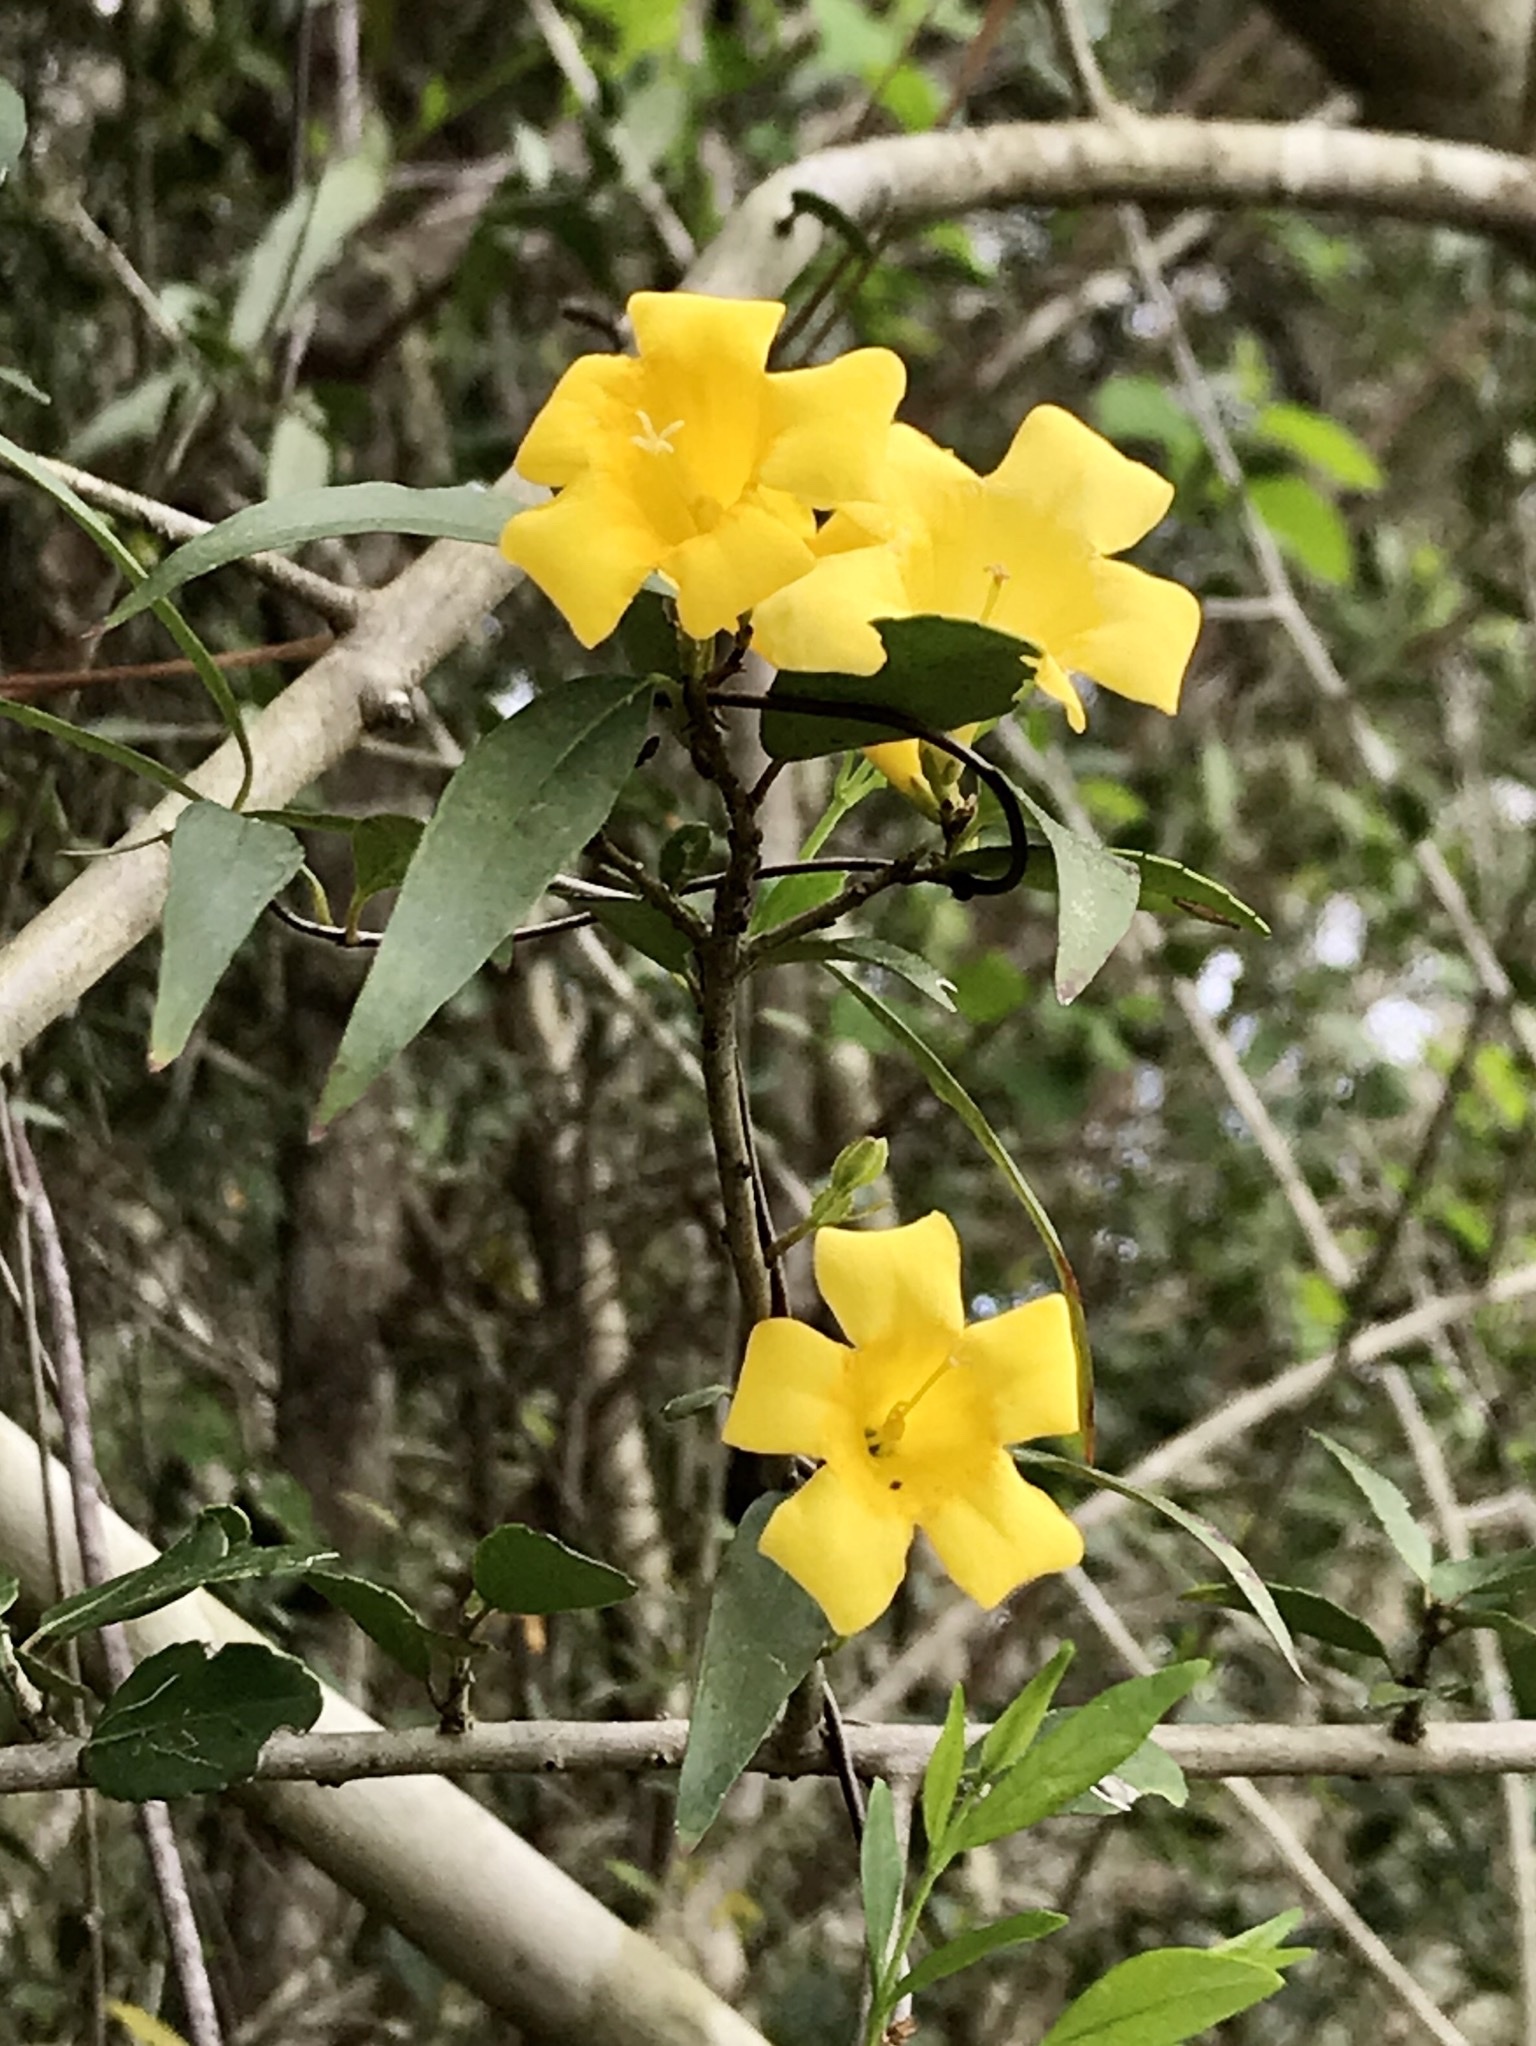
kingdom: Plantae
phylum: Tracheophyta
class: Magnoliopsida
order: Gentianales
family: Gelsemiaceae
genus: Gelsemium
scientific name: Gelsemium sempervirens
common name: Carolina-jasmine
